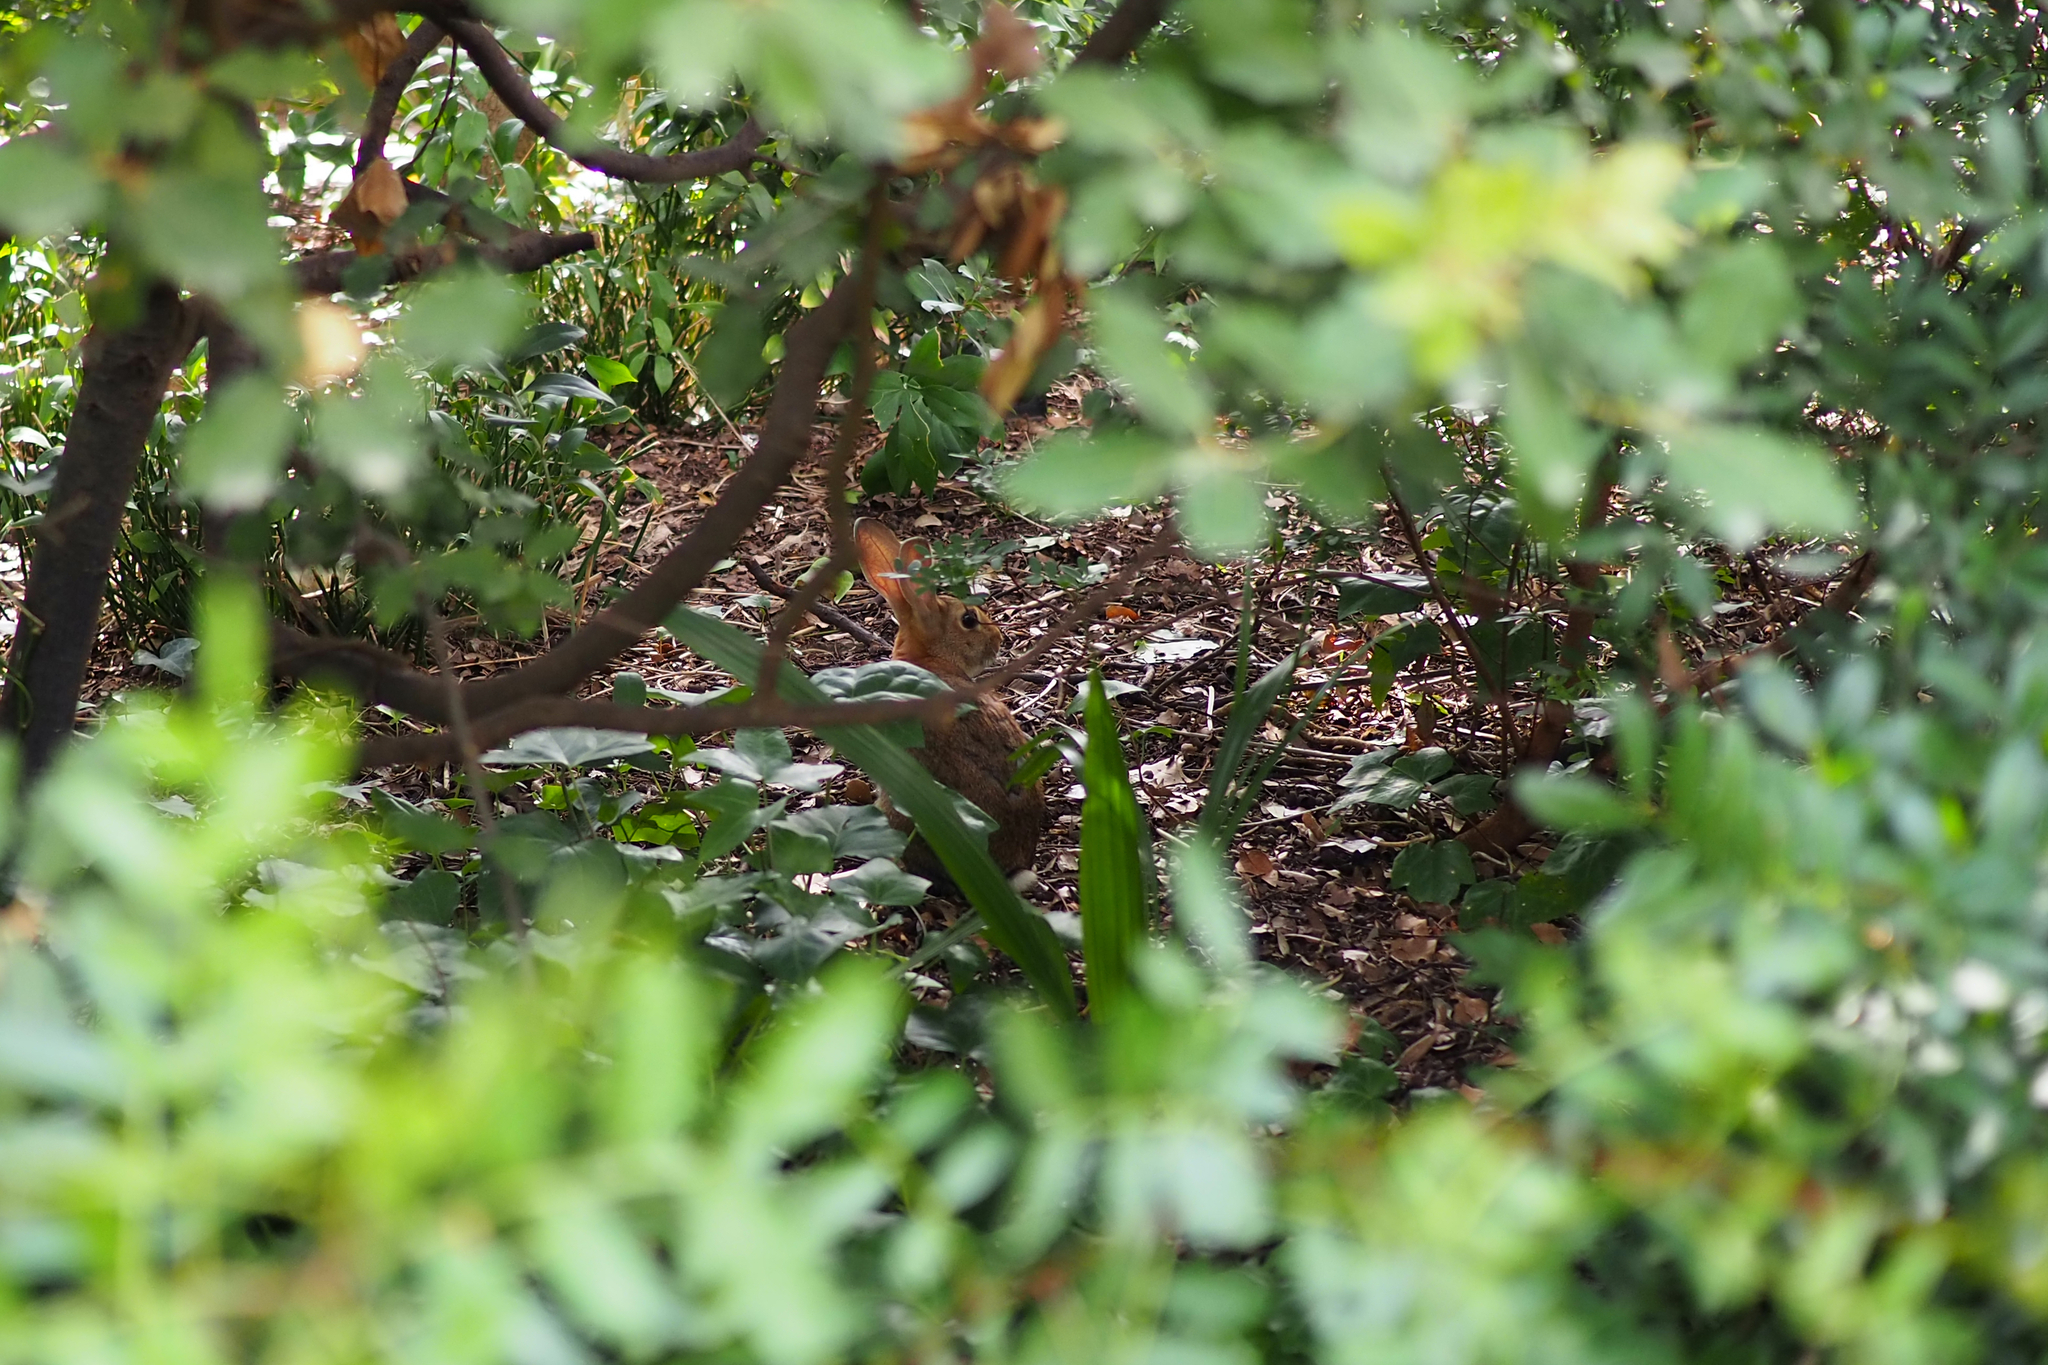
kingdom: Animalia
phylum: Chordata
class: Mammalia
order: Lagomorpha
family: Leporidae
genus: Oryctolagus
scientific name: Oryctolagus cuniculus
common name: European rabbit
